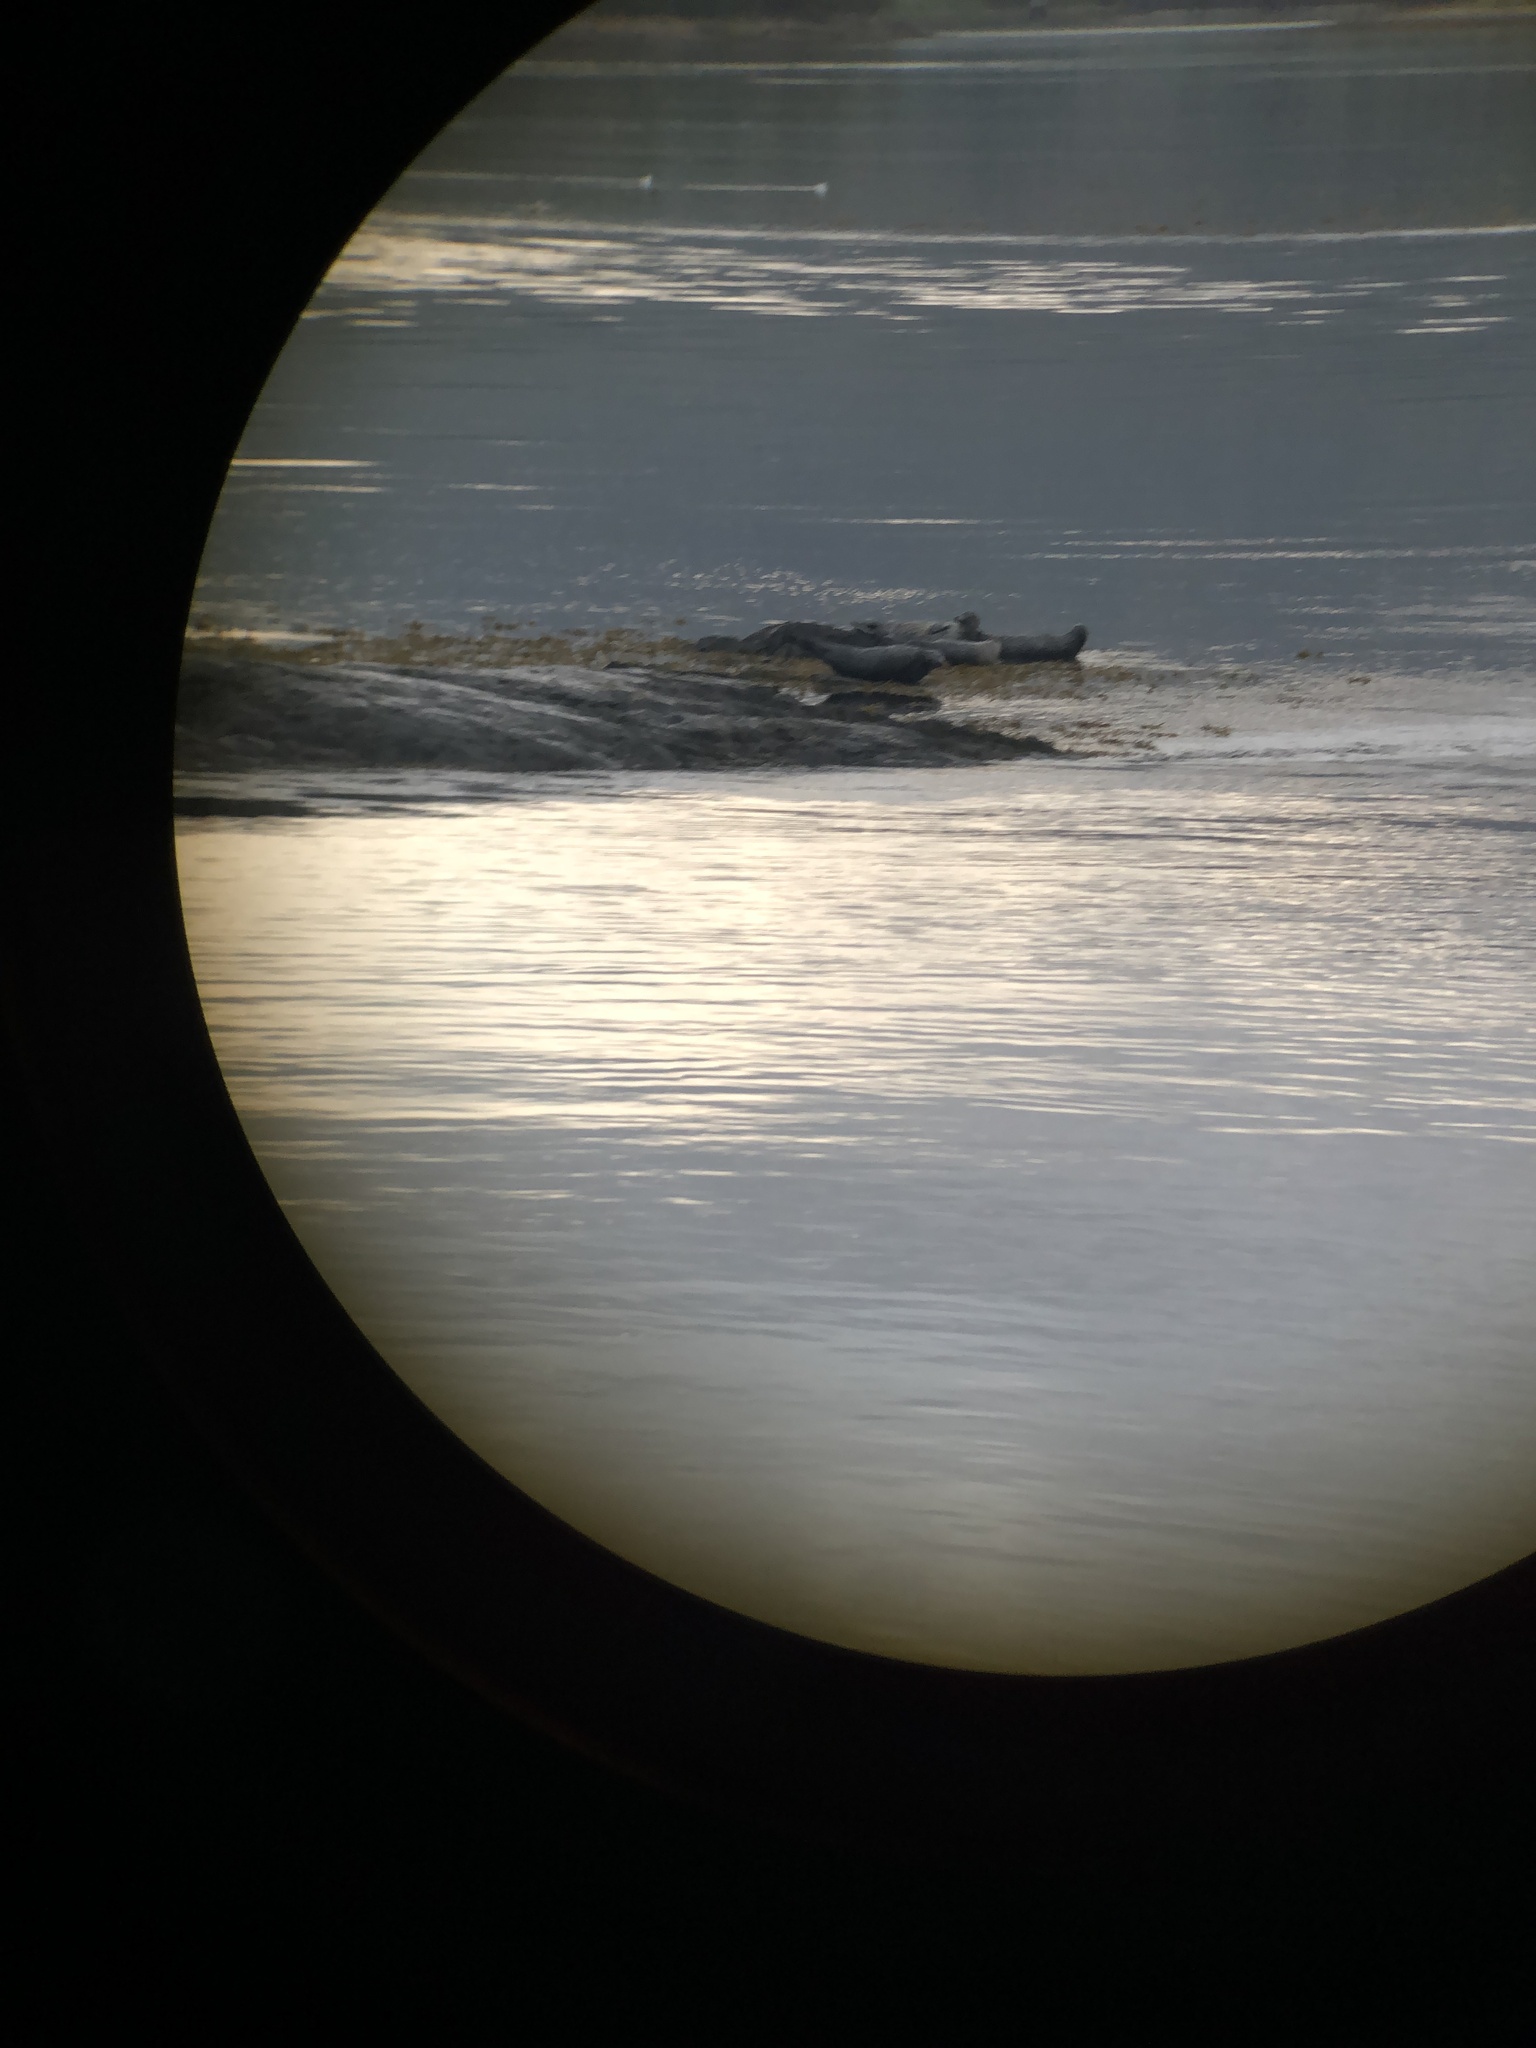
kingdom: Animalia
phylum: Chordata
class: Mammalia
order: Carnivora
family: Phocidae
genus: Phoca
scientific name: Phoca vitulina
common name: Harbor seal
